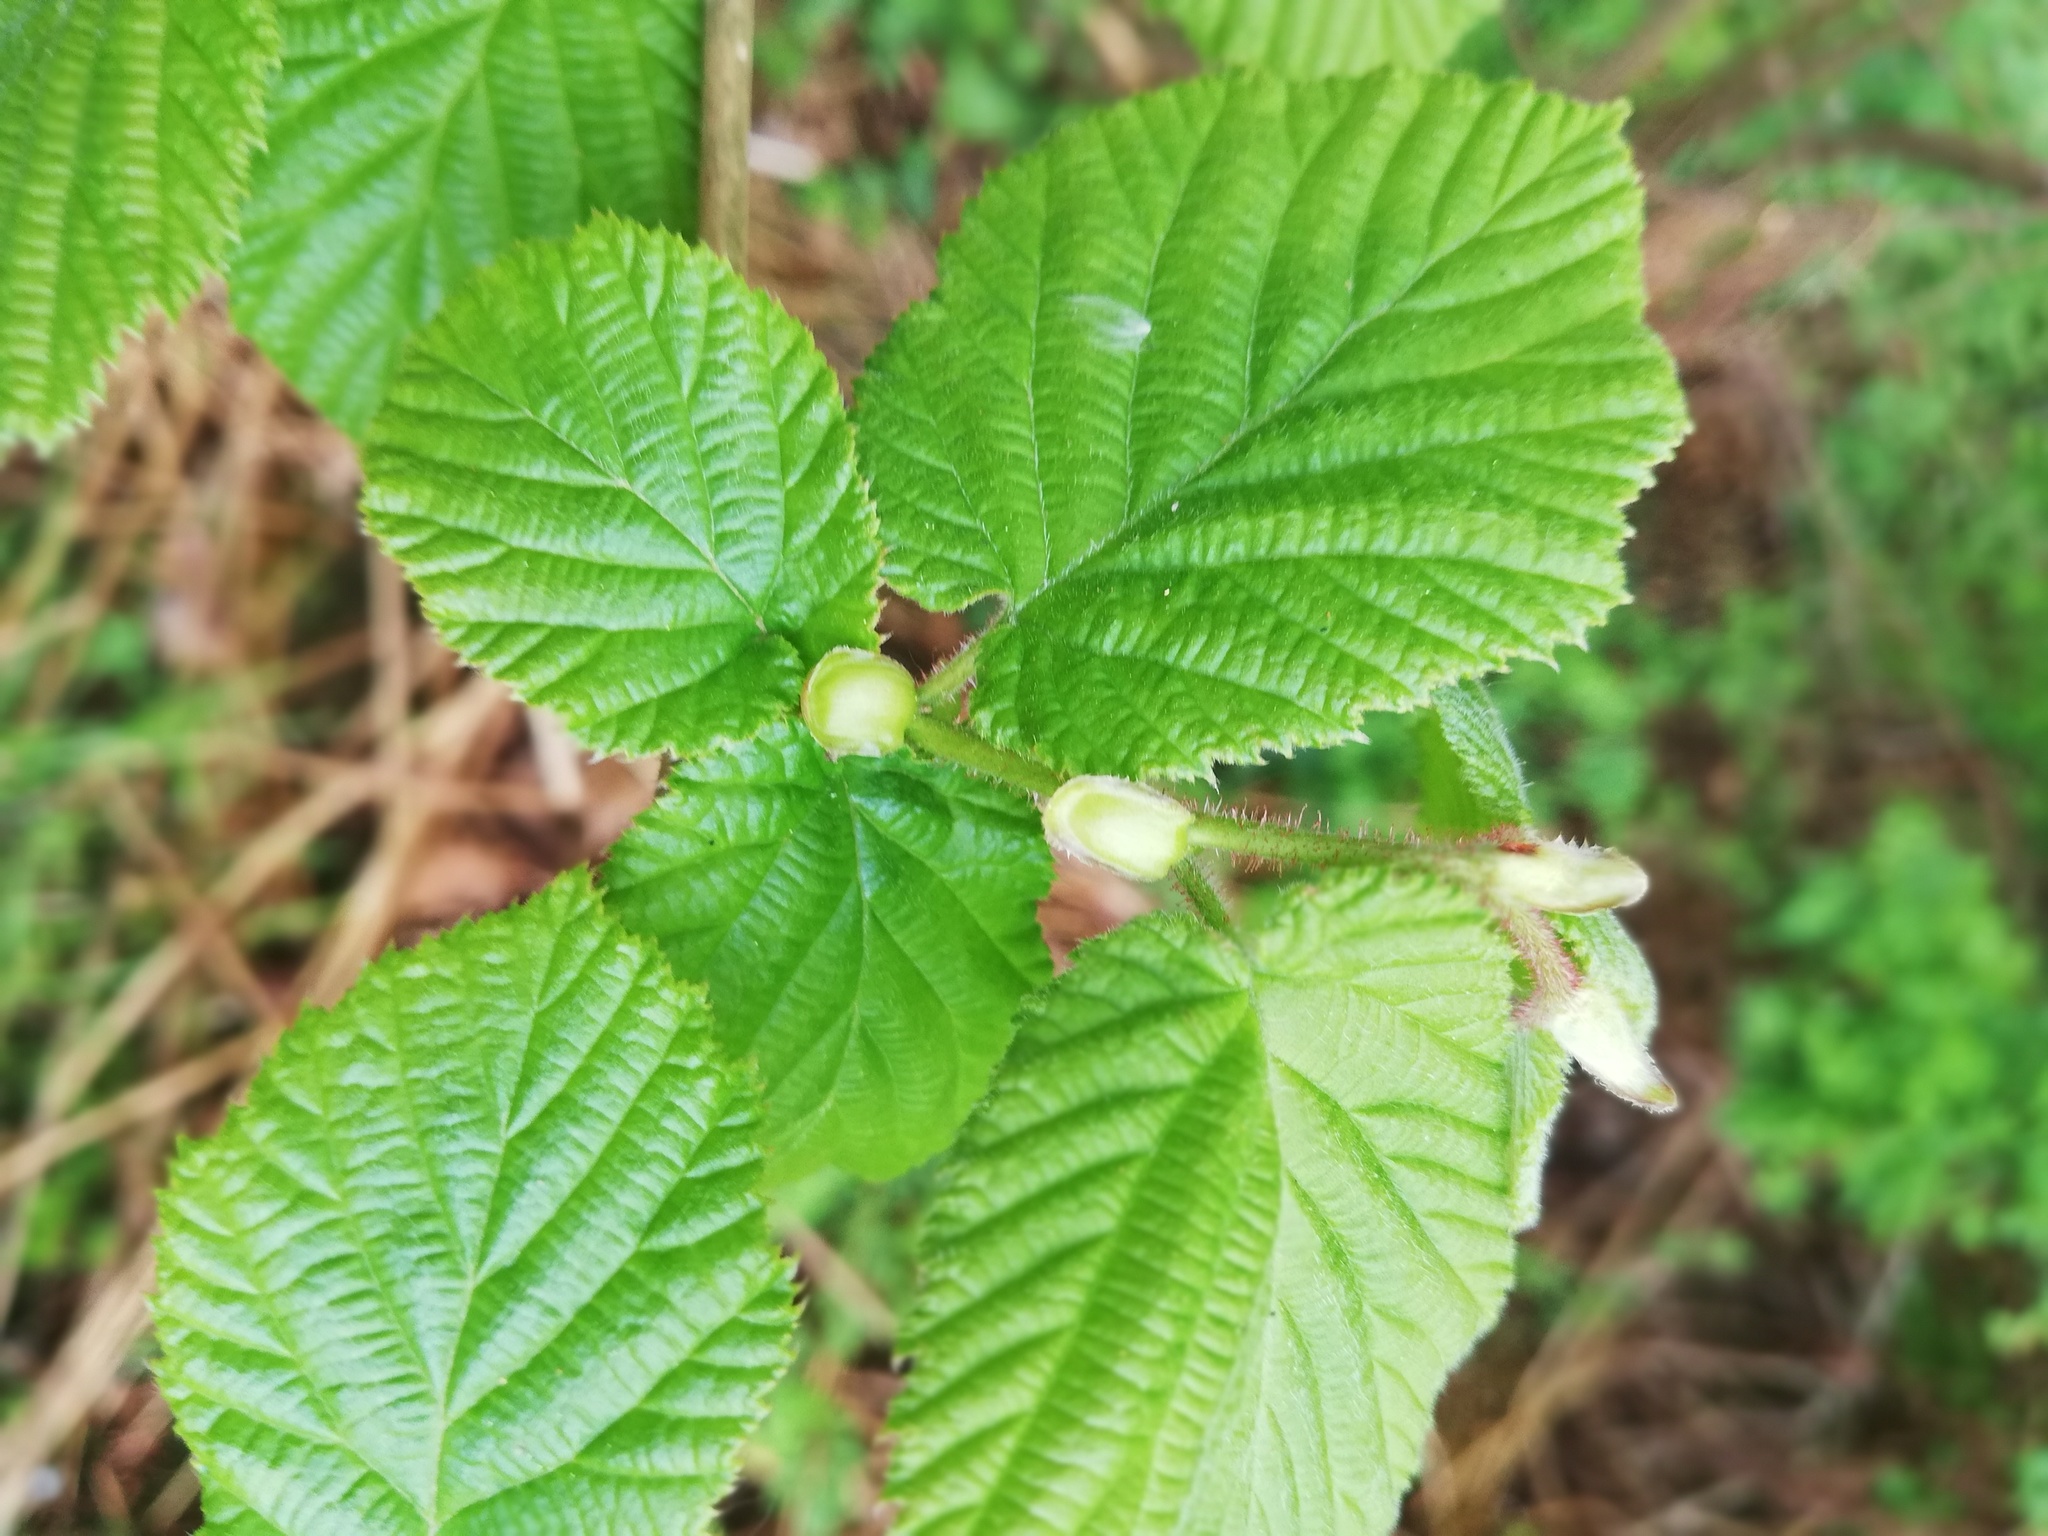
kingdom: Plantae
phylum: Tracheophyta
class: Magnoliopsida
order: Fagales
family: Betulaceae
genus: Corylus
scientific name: Corylus avellana
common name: European hazel
